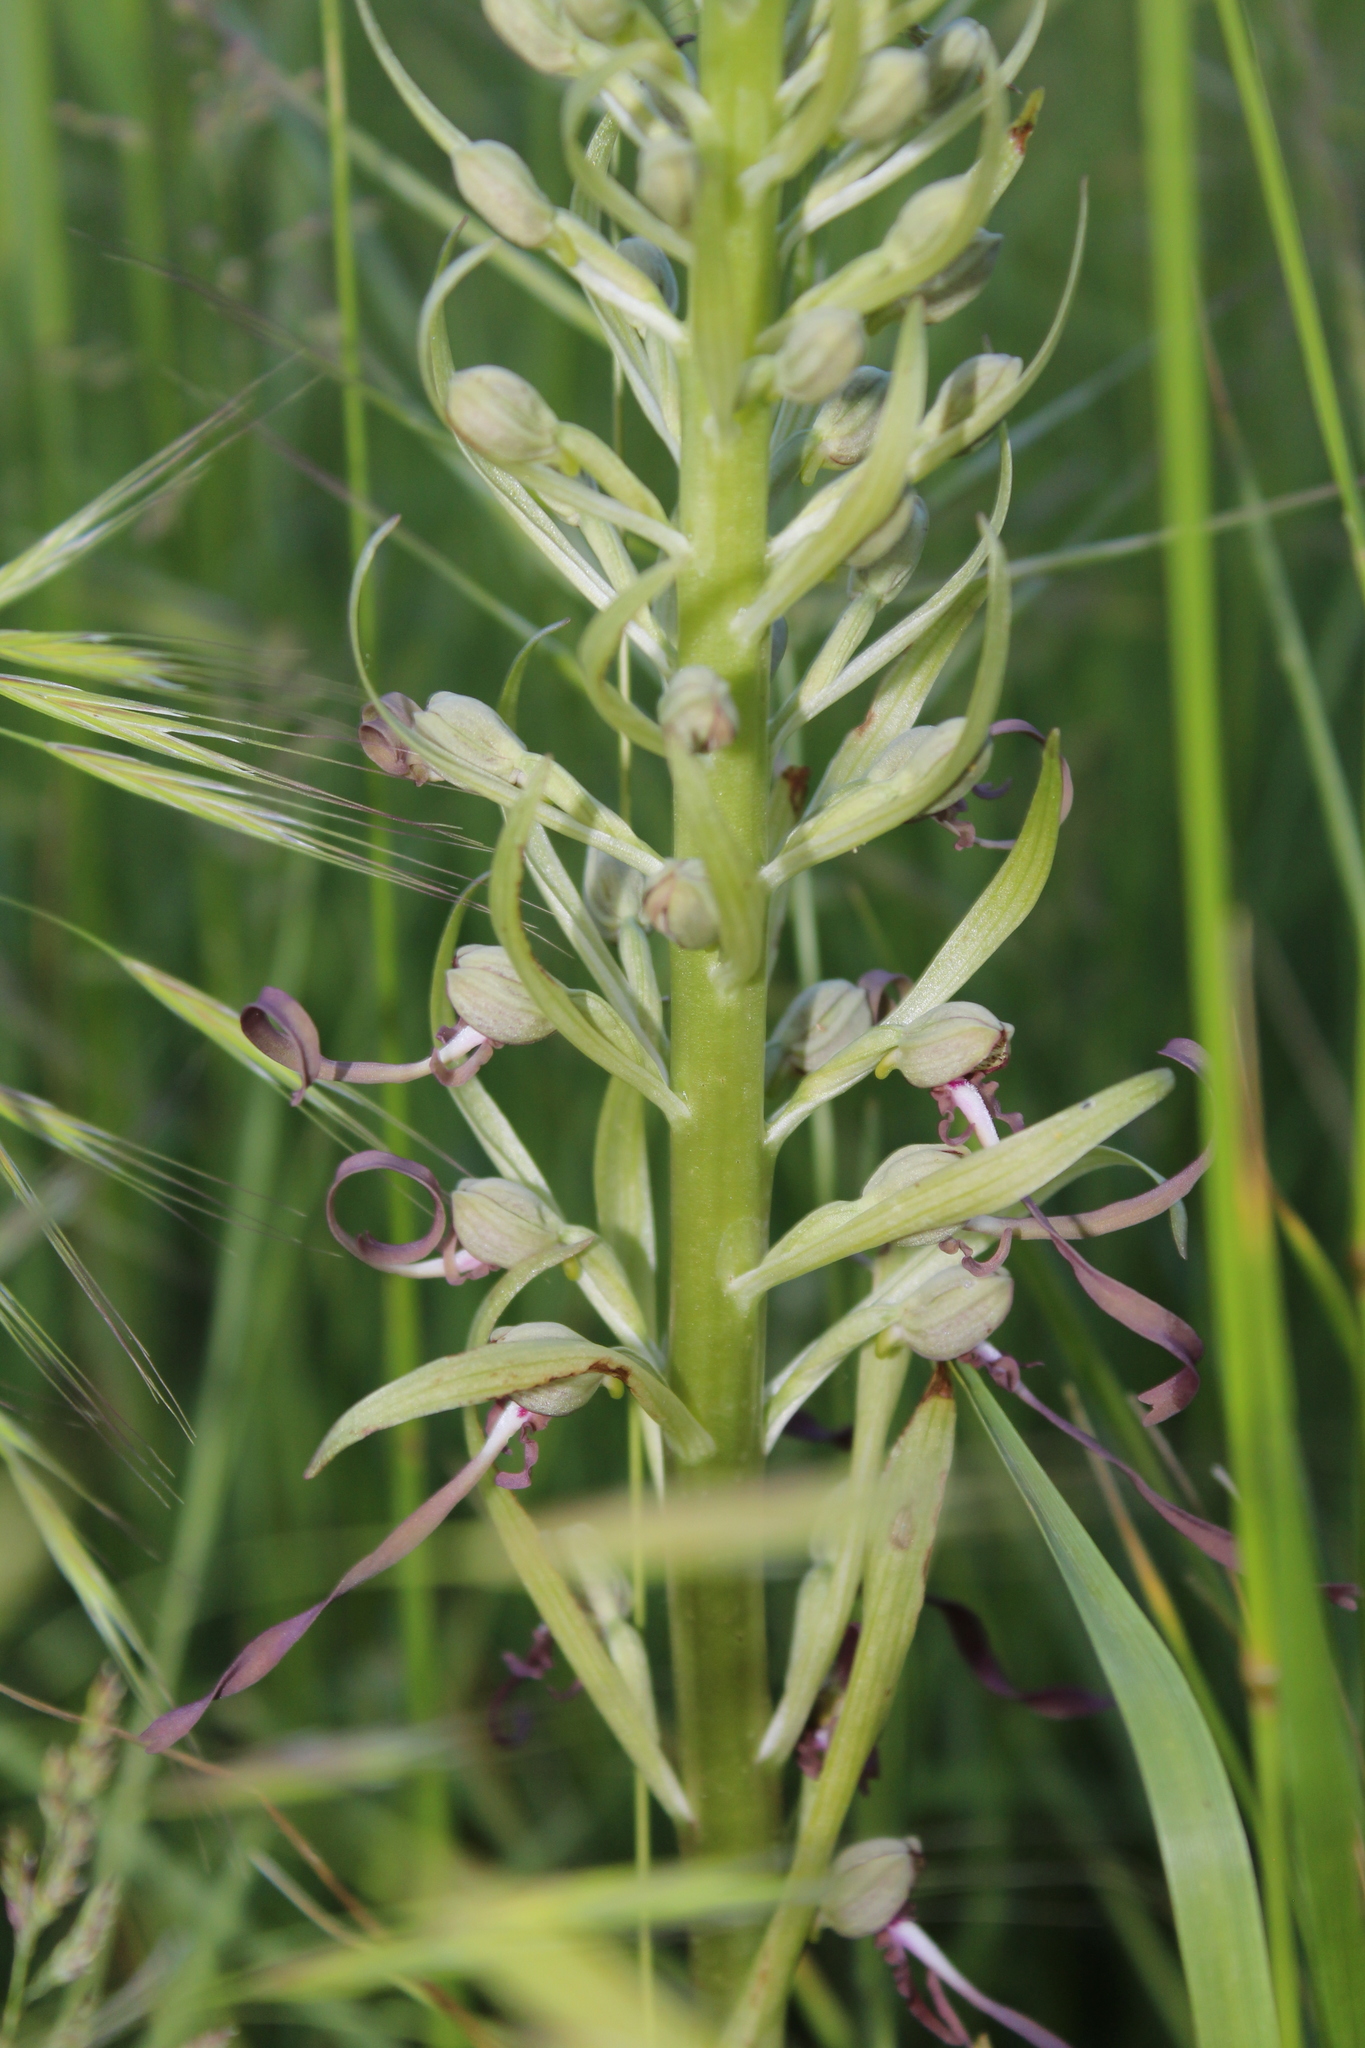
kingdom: Plantae
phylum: Tracheophyta
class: Liliopsida
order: Asparagales
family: Orchidaceae
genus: Himantoglossum
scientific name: Himantoglossum hircinum
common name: Lizard orchid
